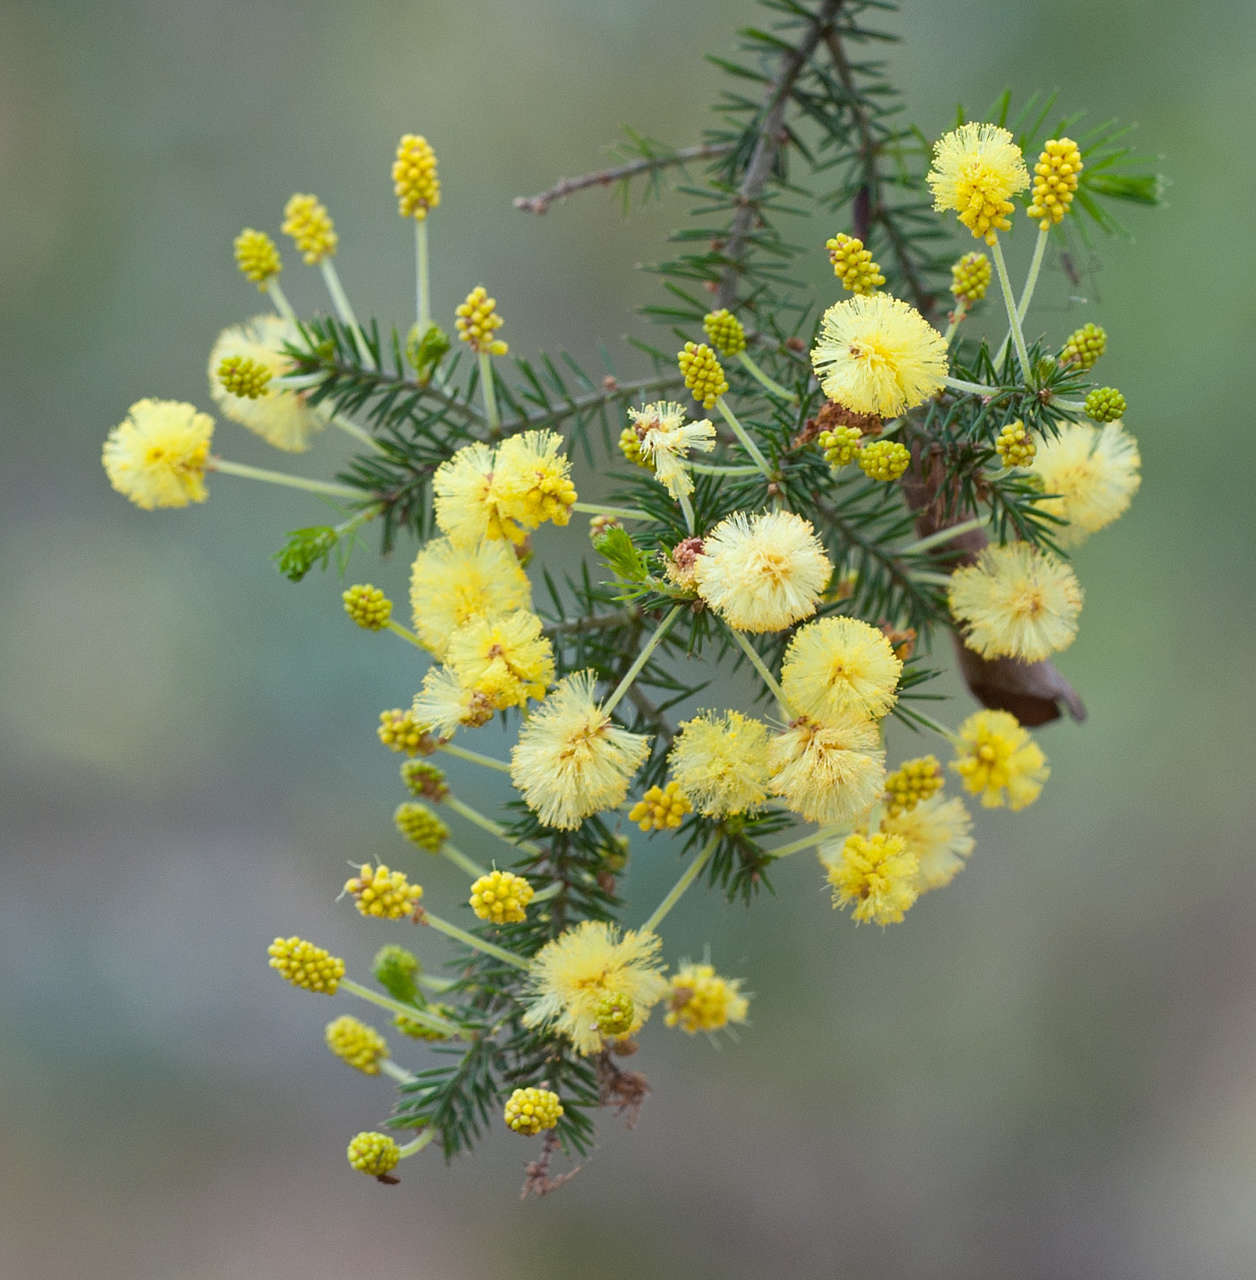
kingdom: Plantae
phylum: Tracheophyta
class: Magnoliopsida
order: Fabales
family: Fabaceae
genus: Acacia
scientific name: Acacia verticillata
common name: Prickly moses
